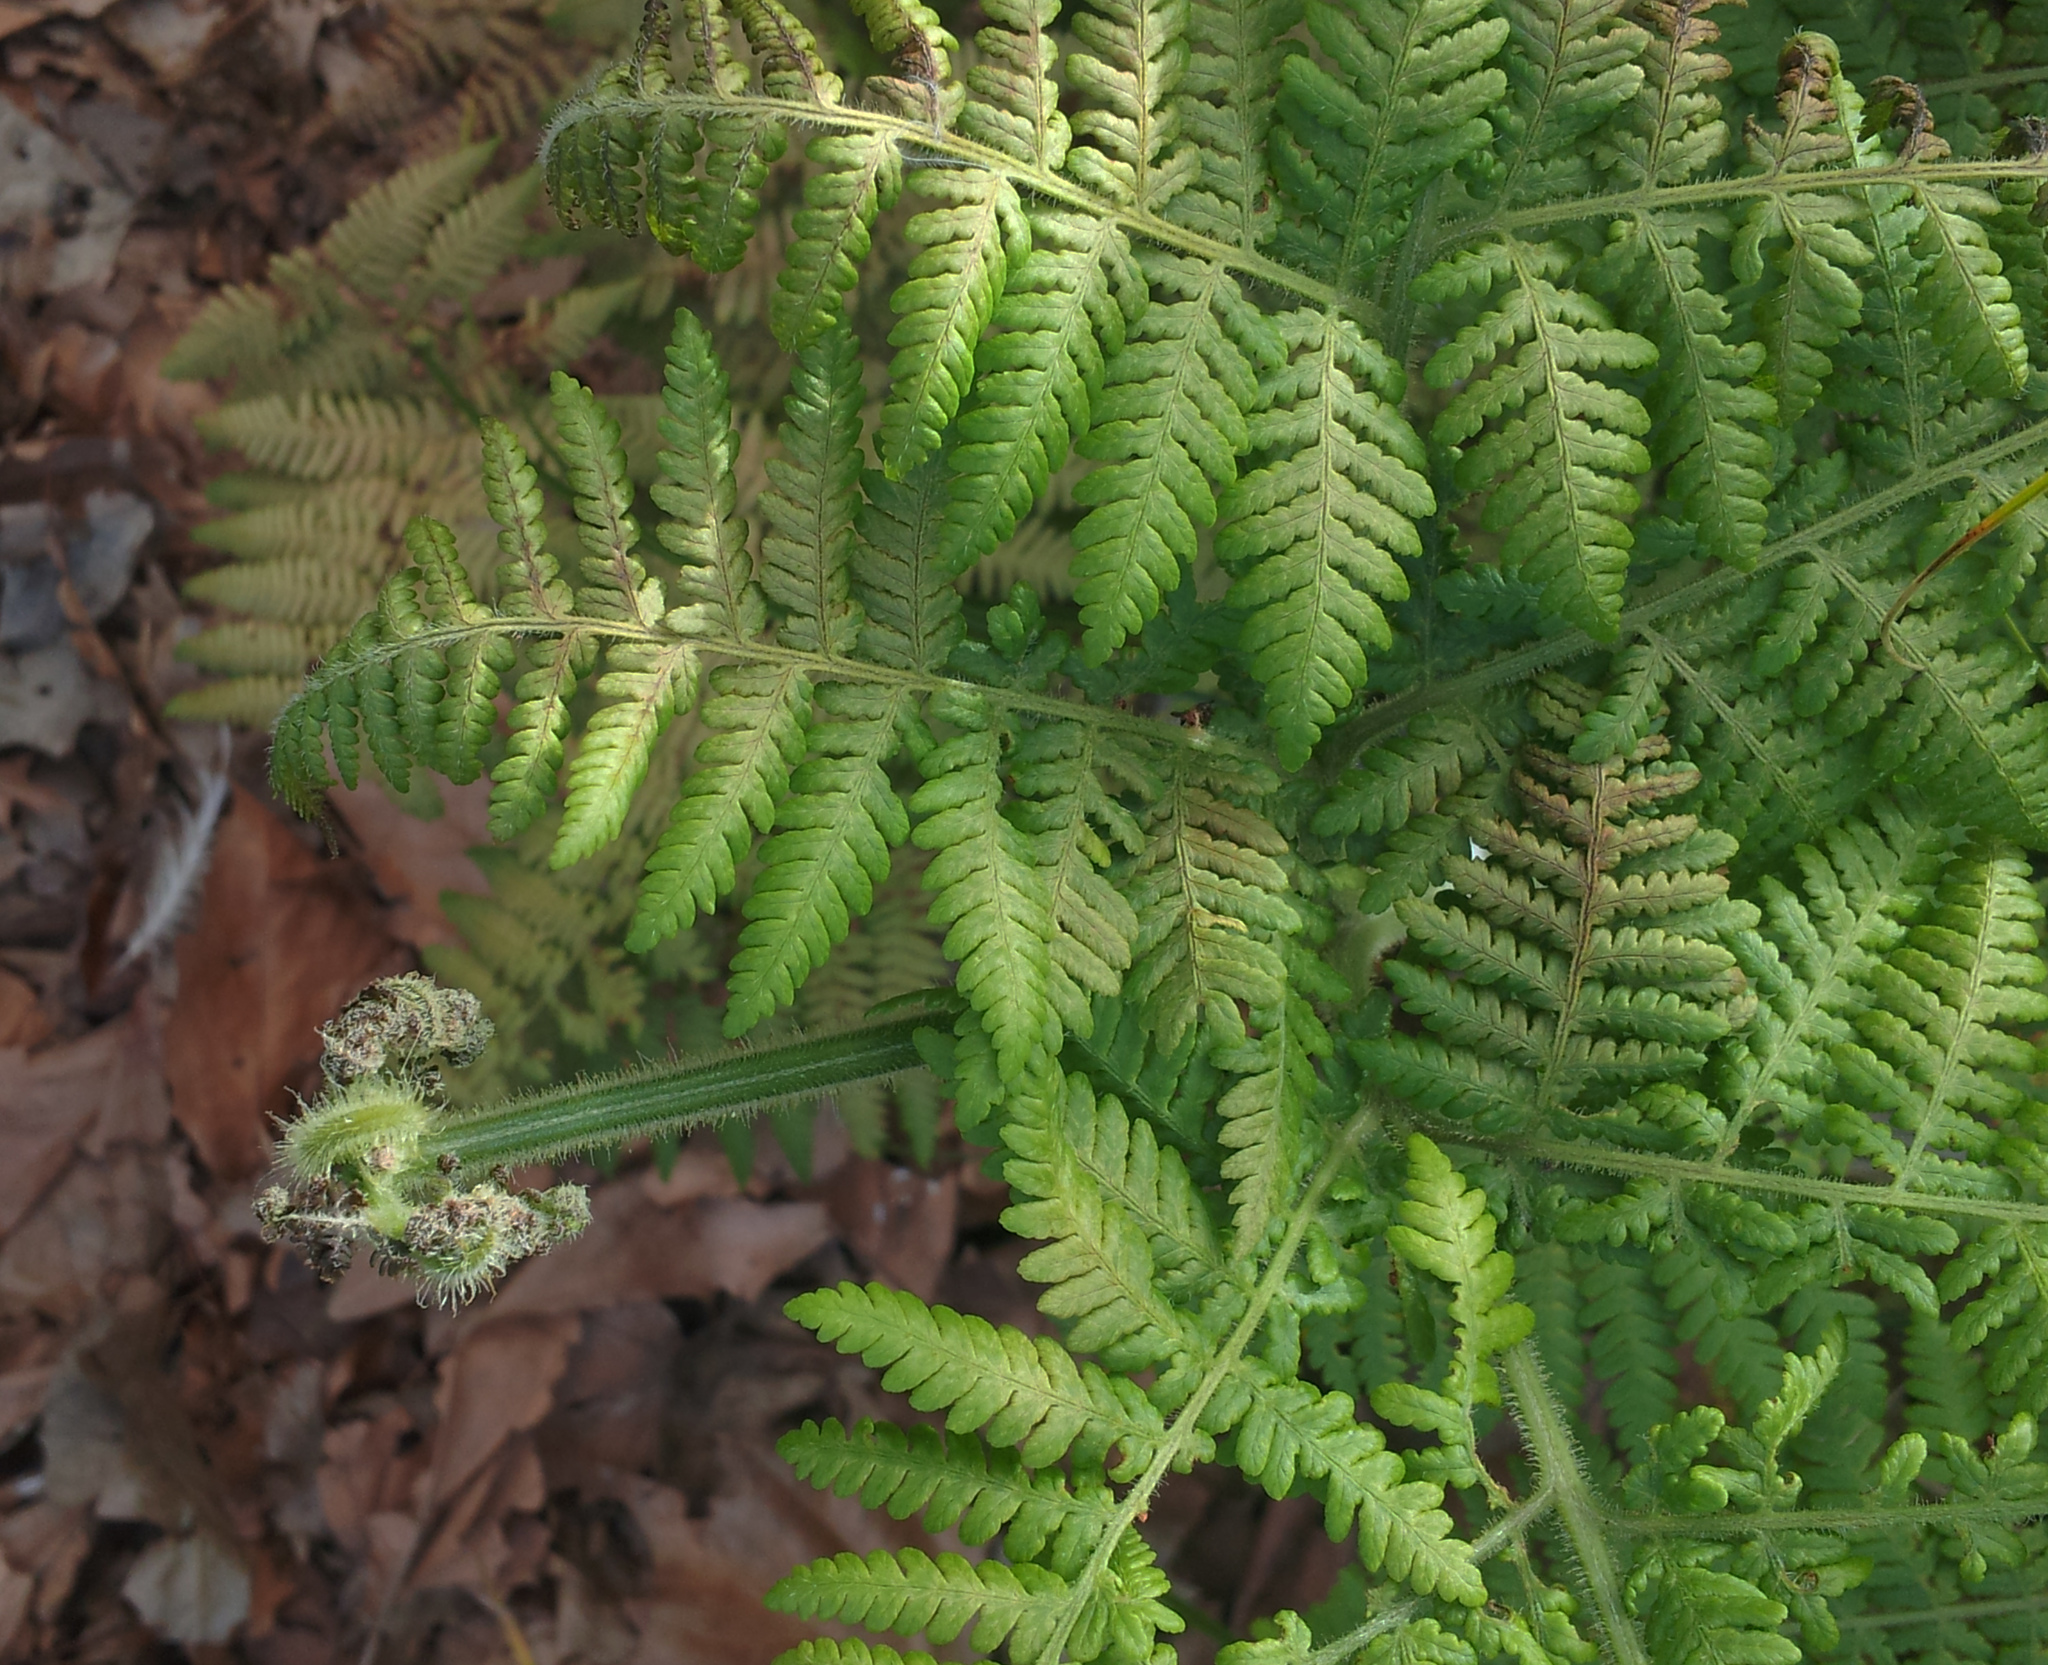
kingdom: Plantae
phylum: Tracheophyta
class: Polypodiopsida
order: Polypodiales
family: Dennstaedtiaceae
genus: Hypolepis
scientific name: Hypolepis dicksonioides
